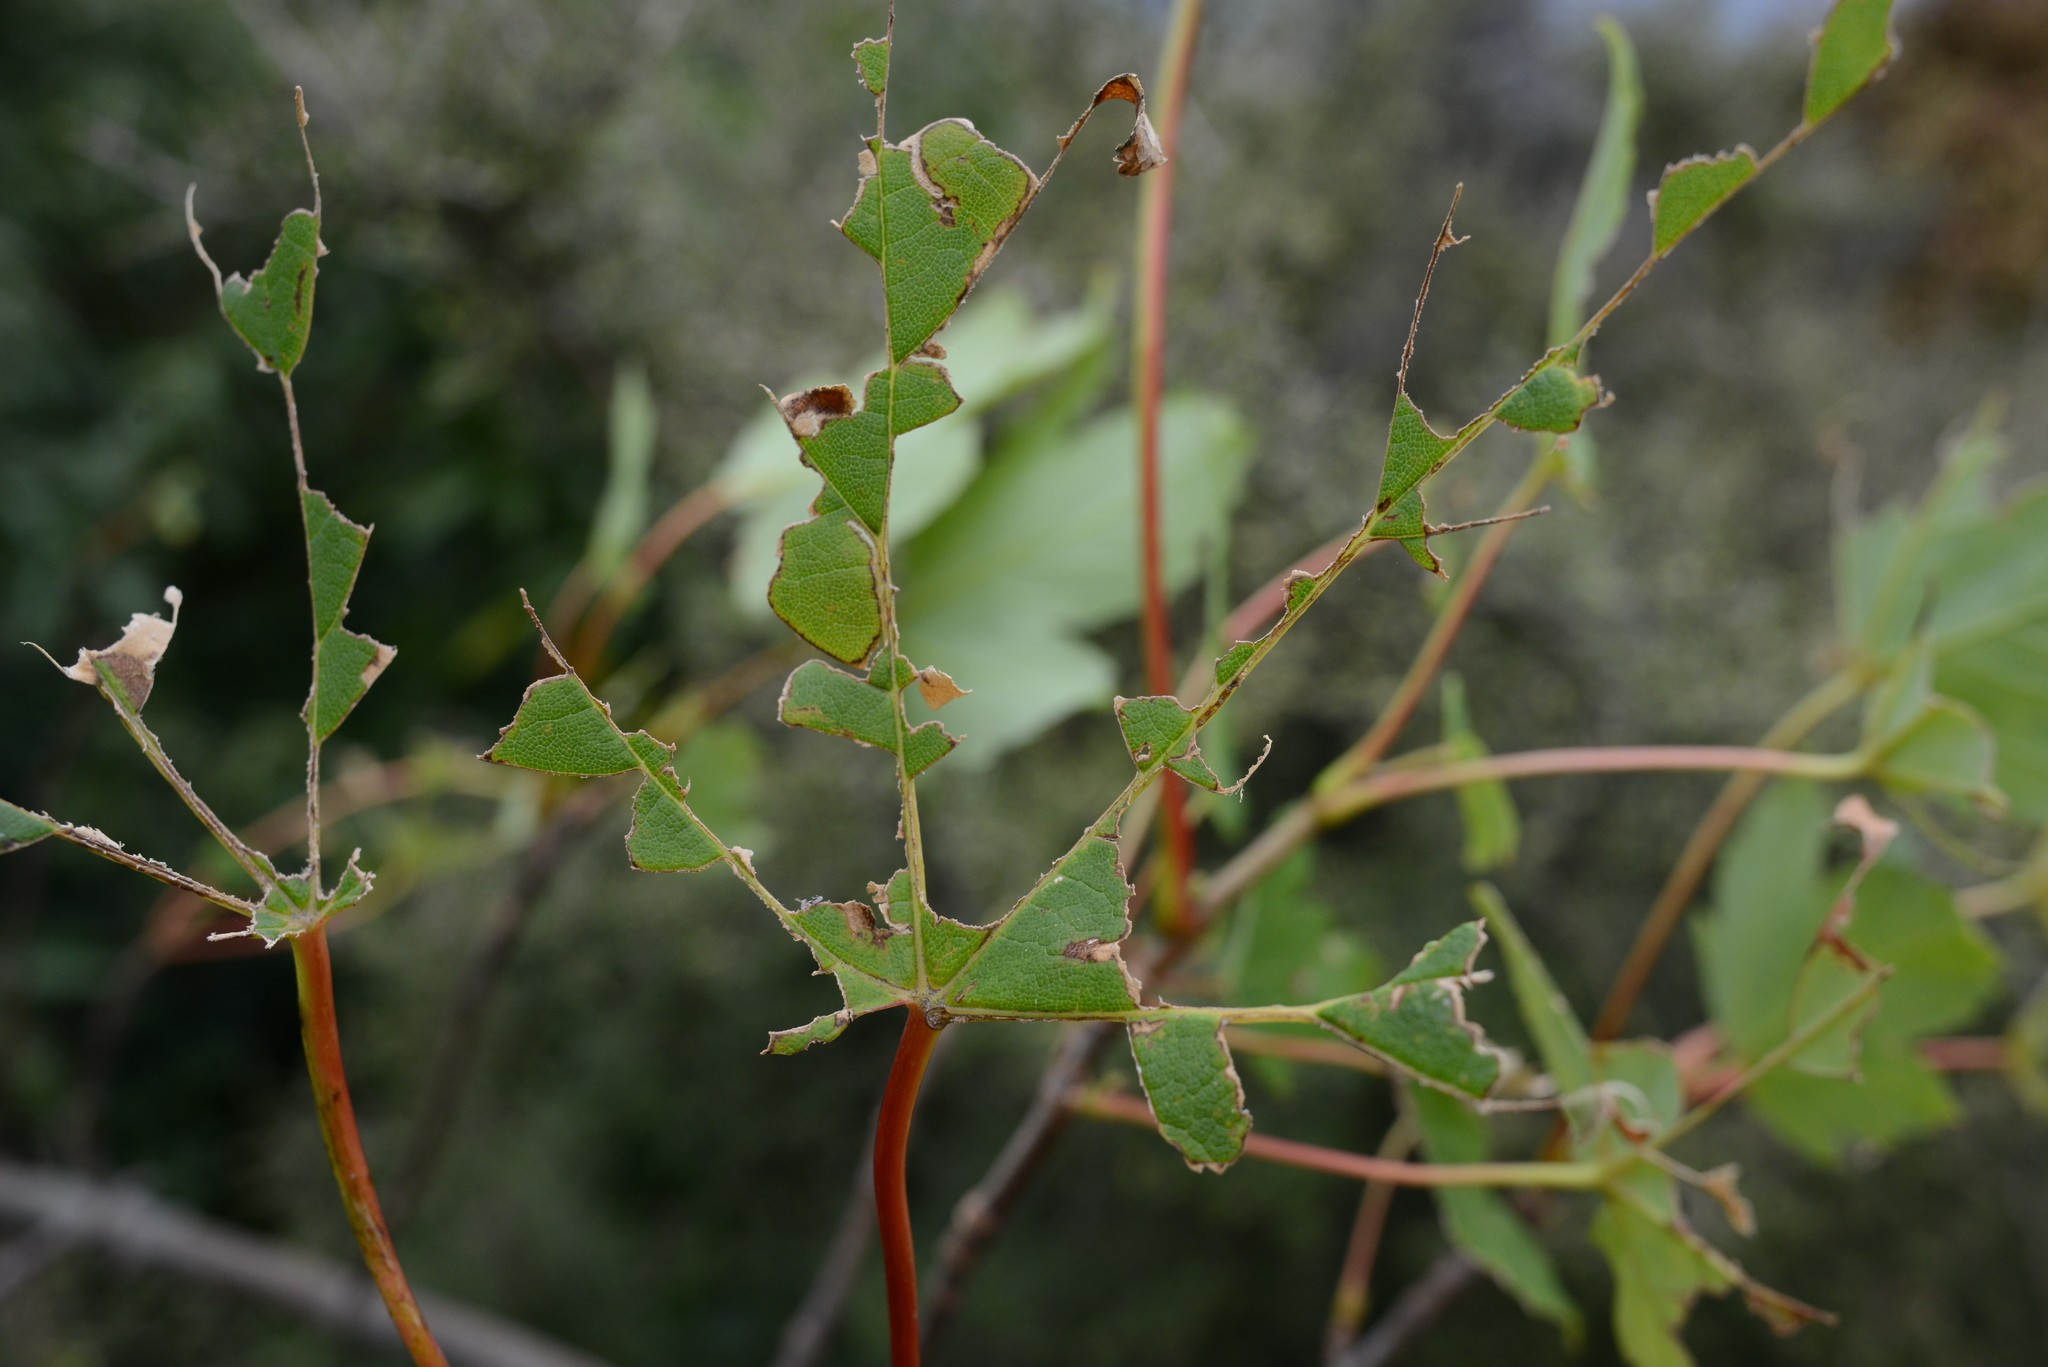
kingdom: Plantae
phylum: Tracheophyta
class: Magnoliopsida
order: Sapindales
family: Sapindaceae
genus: Acer
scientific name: Acer pseudoplatanus
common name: Sycamore
